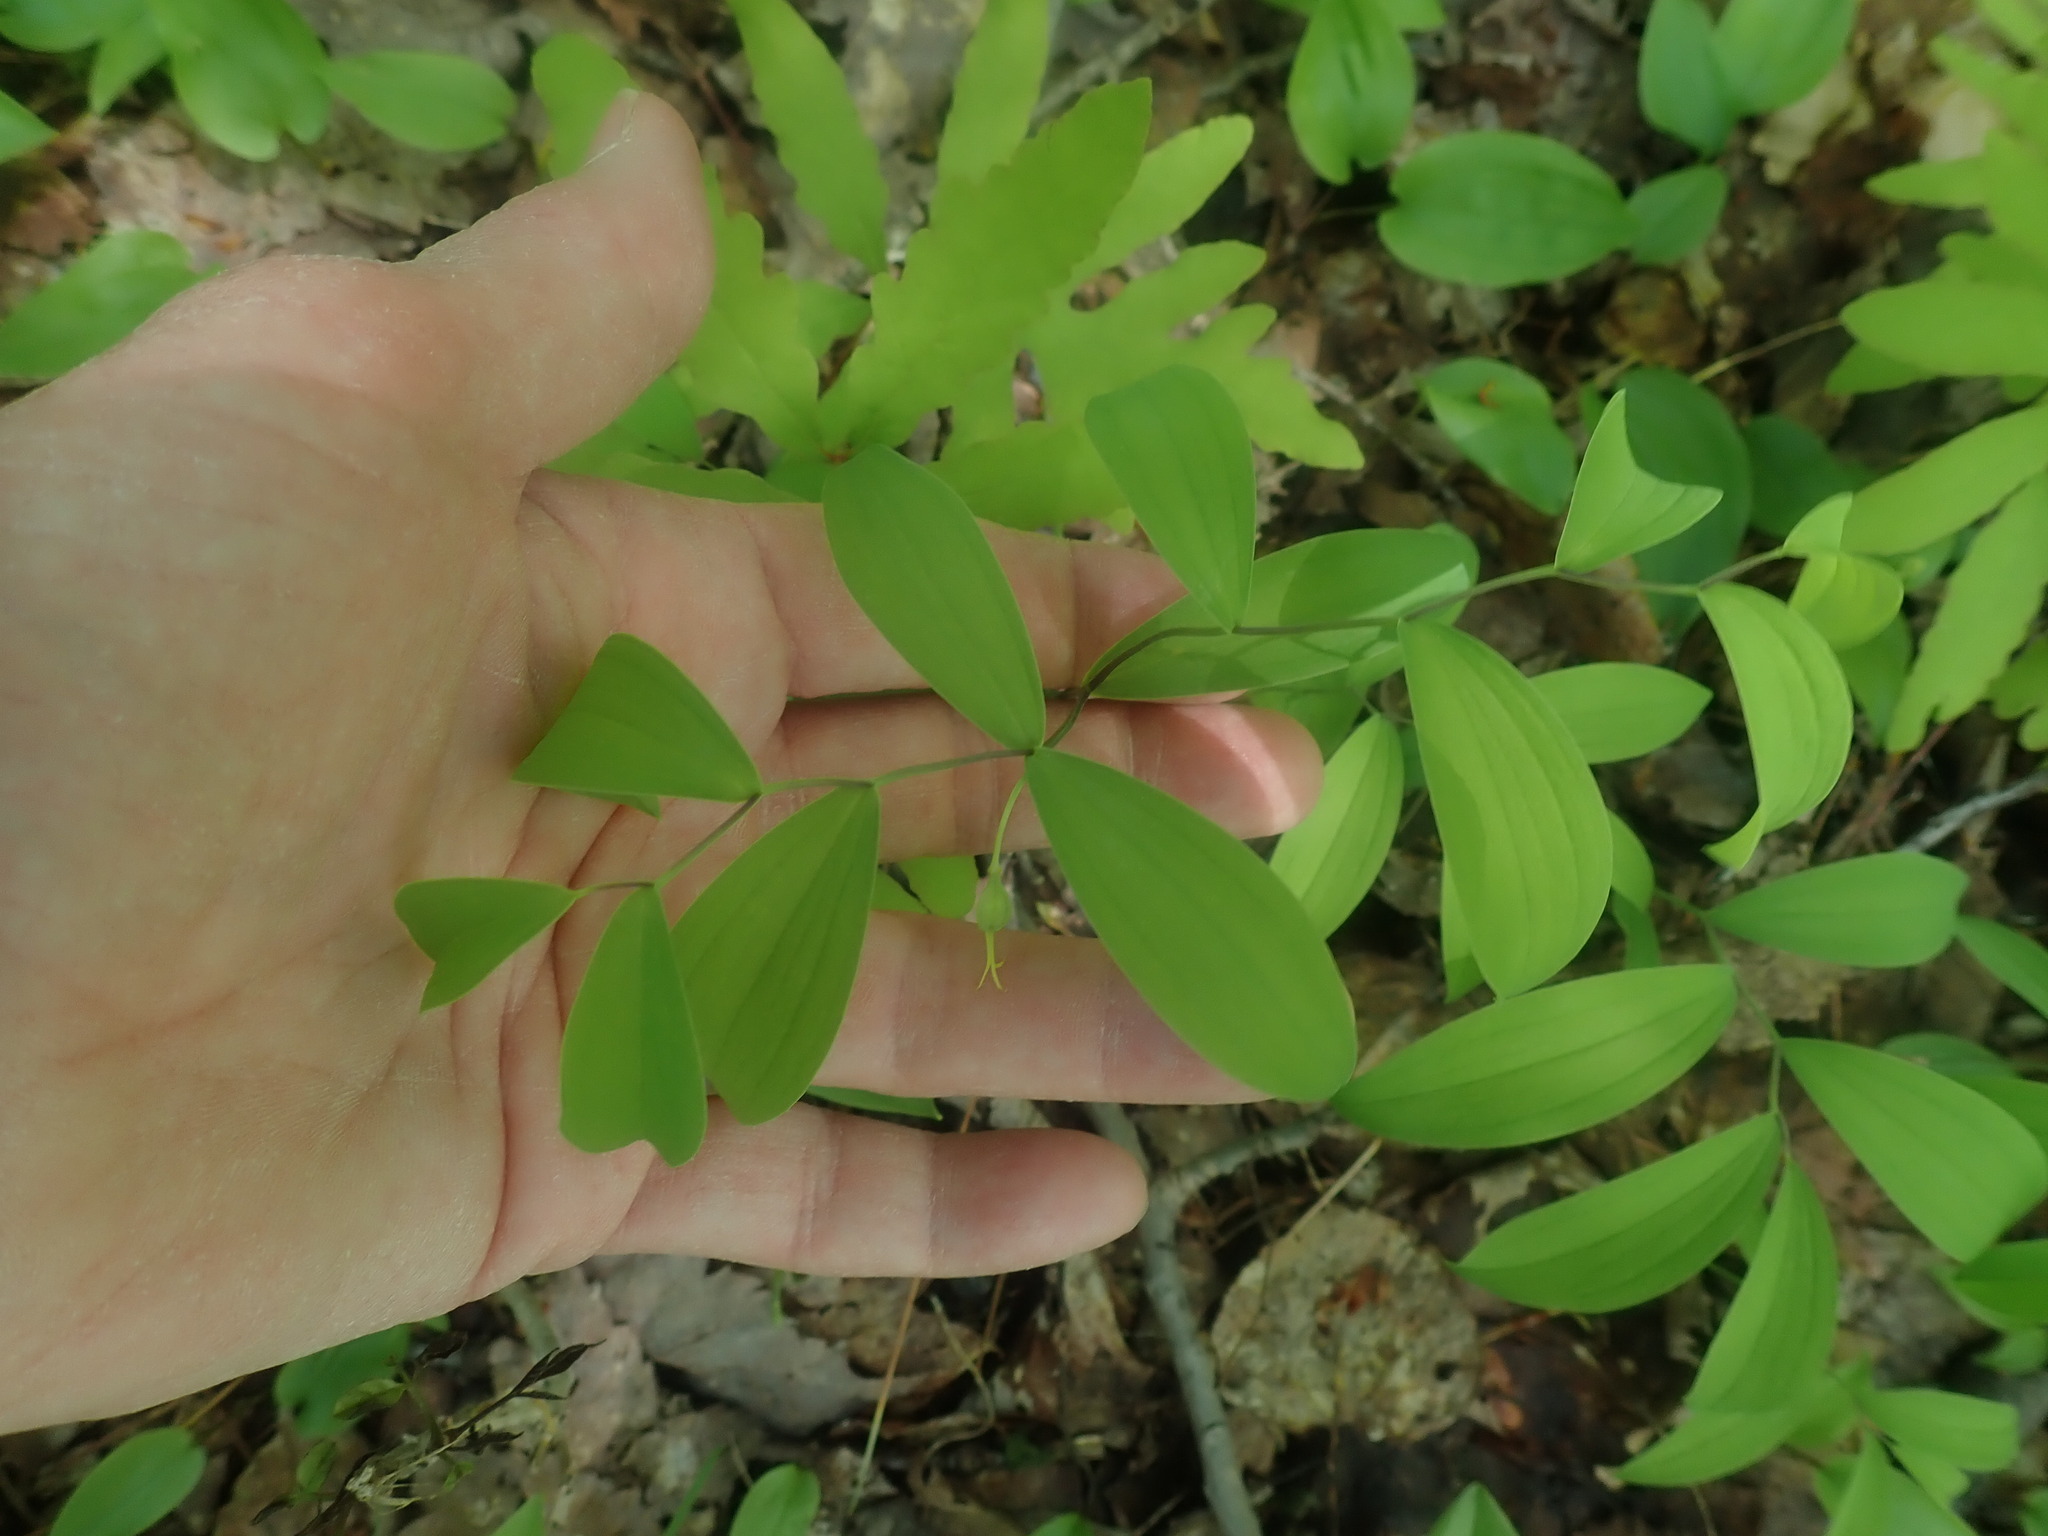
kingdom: Plantae
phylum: Tracheophyta
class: Liliopsida
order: Liliales
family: Colchicaceae
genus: Uvularia
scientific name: Uvularia sessilifolia
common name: Straw-lily
